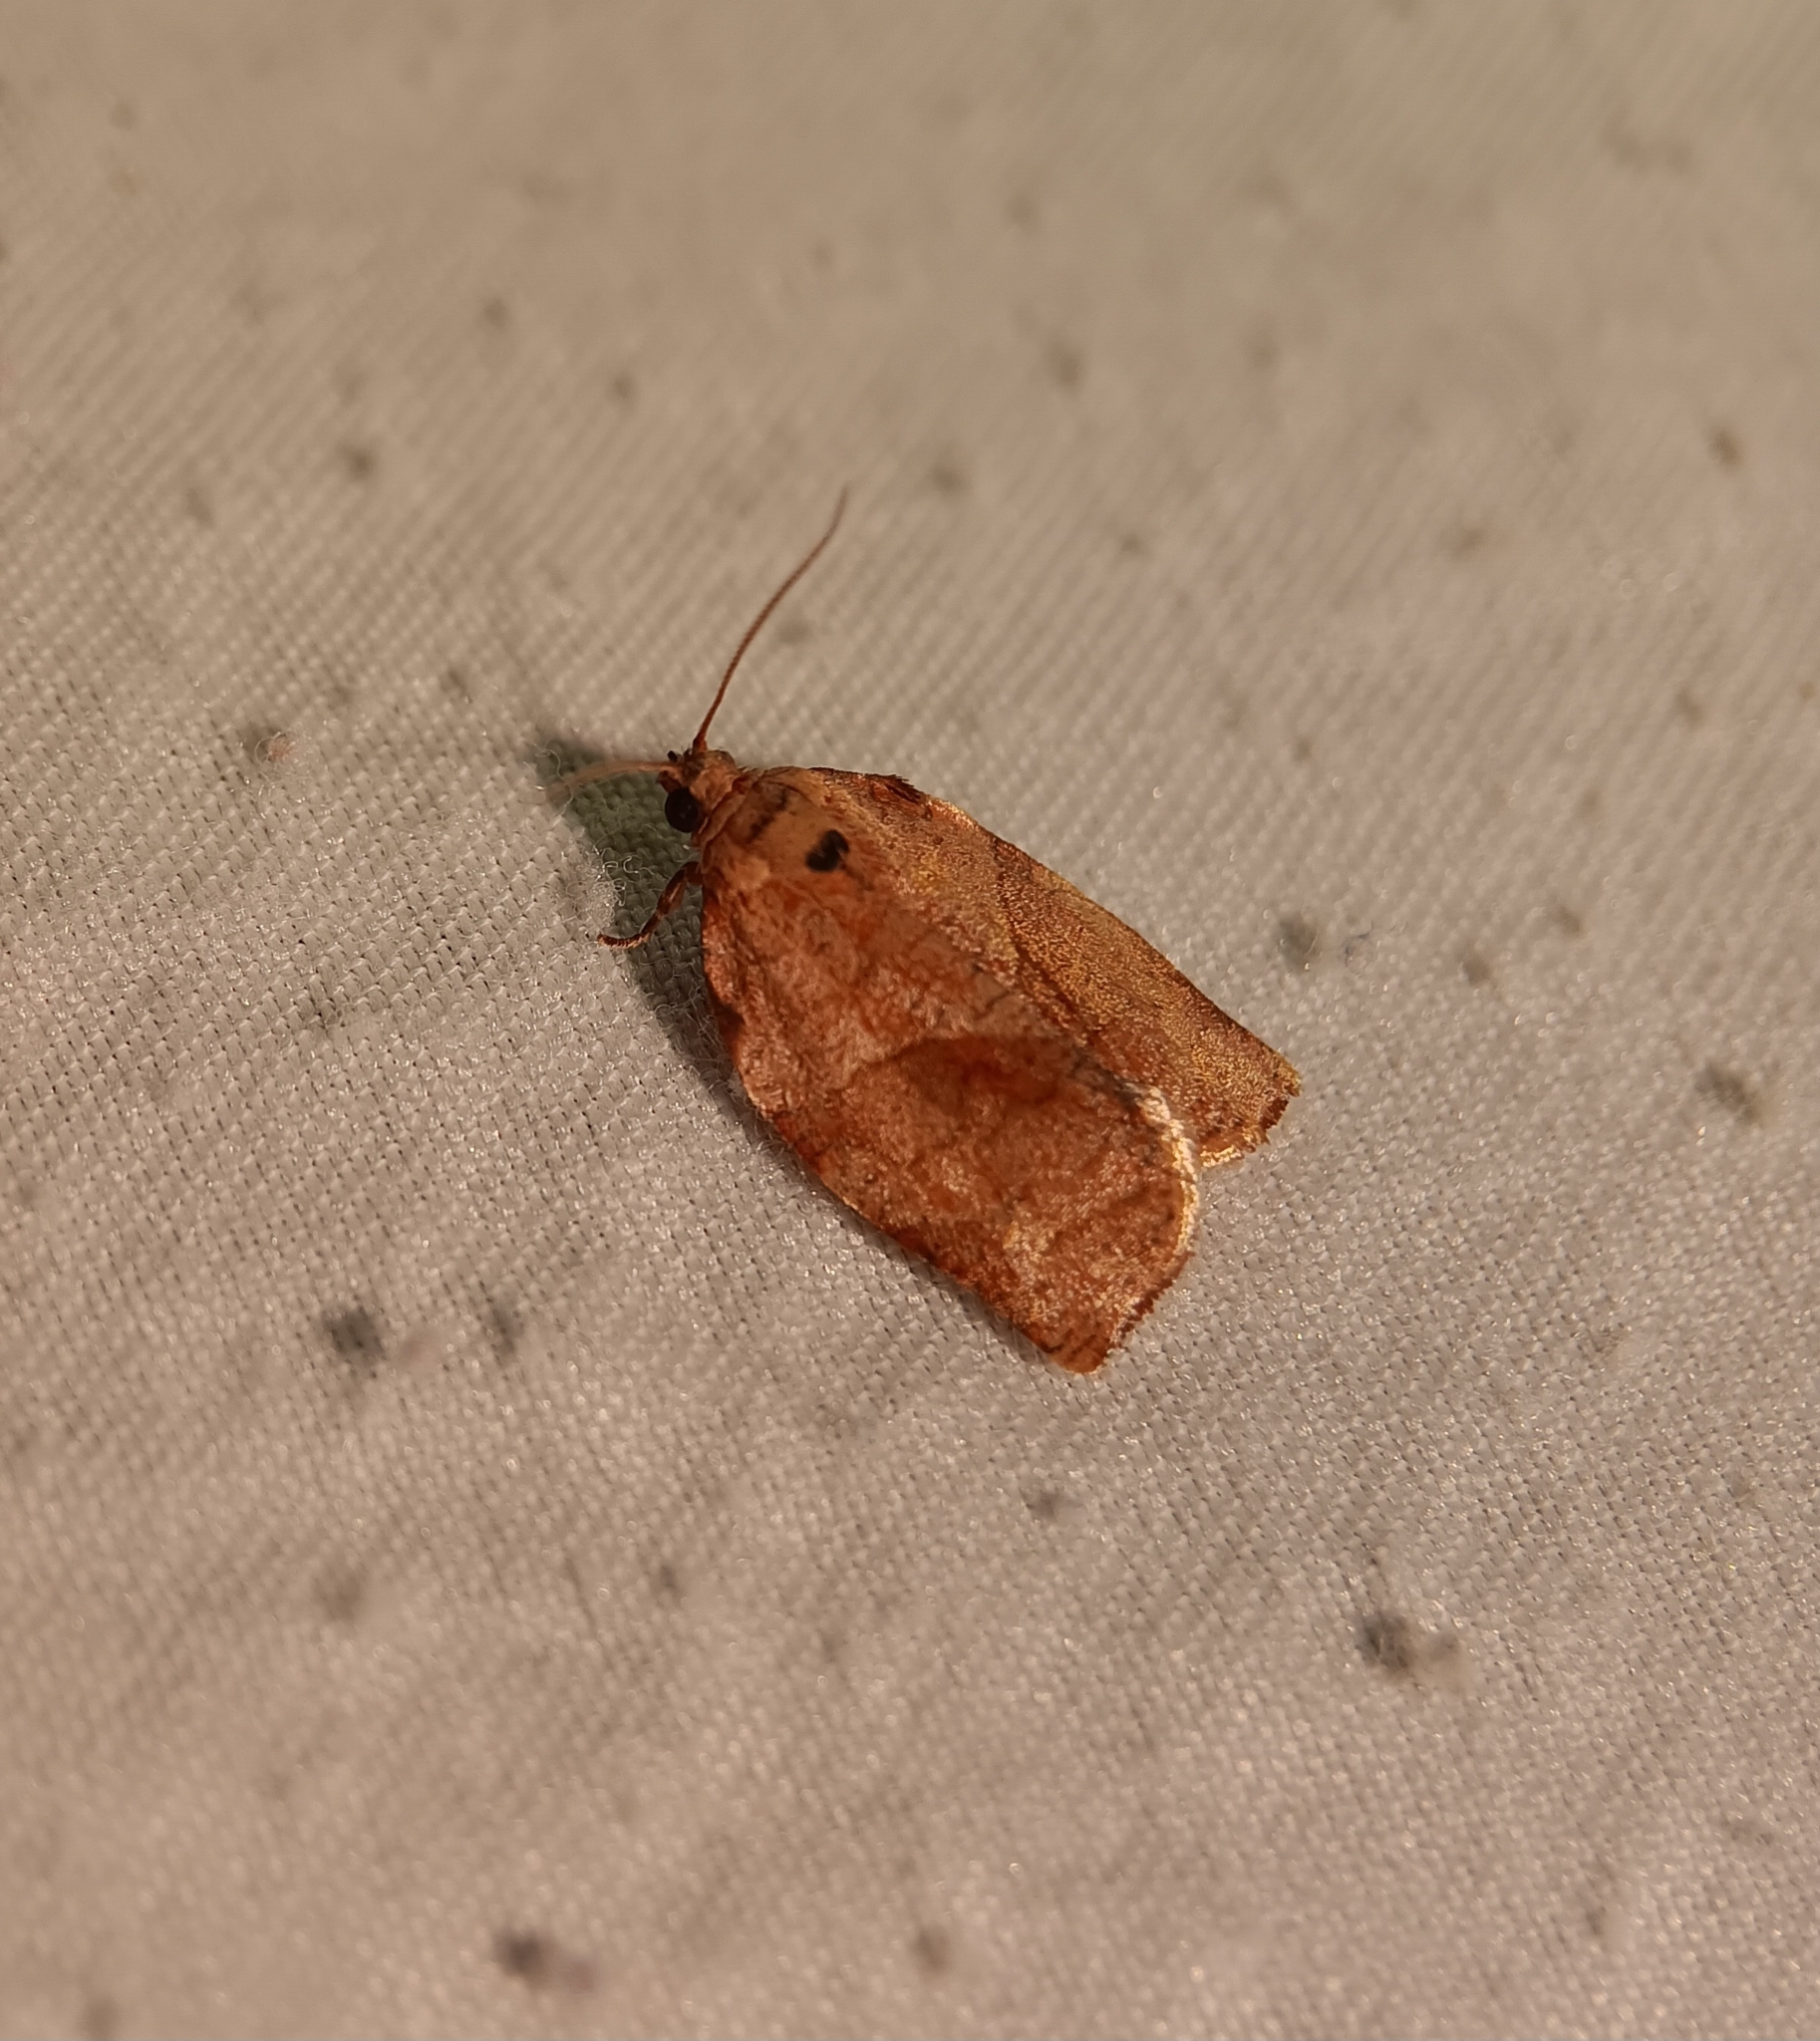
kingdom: Animalia
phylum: Arthropoda
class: Insecta
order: Lepidoptera
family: Tortricidae
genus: Choristoneura
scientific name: Choristoneura rosaceana
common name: Oblique-banded leafroller moth
